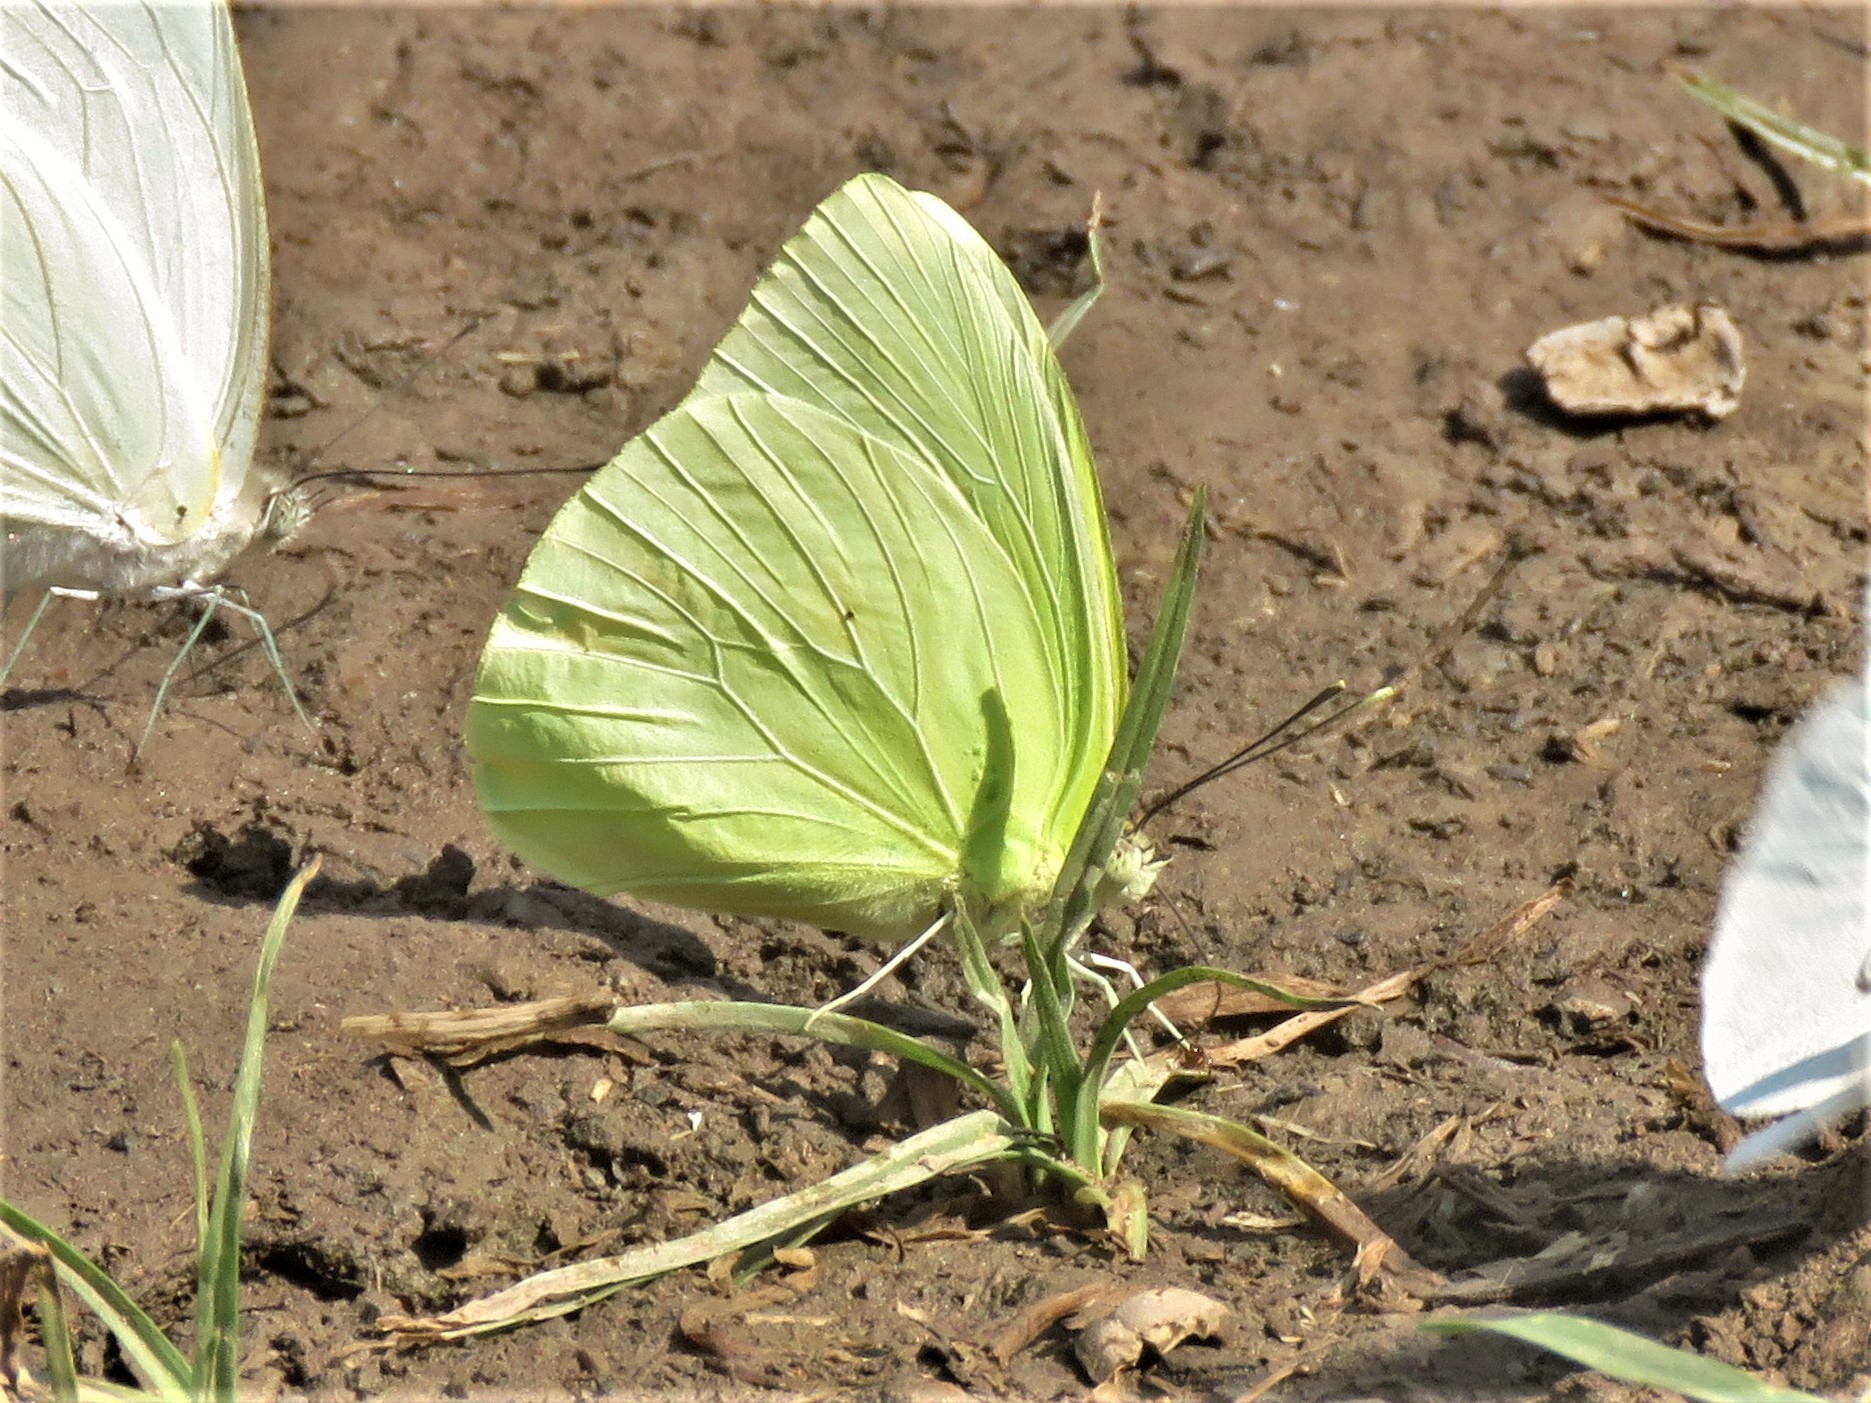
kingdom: Animalia
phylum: Arthropoda
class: Insecta
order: Lepidoptera
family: Pieridae
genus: Aphrissa
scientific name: Aphrissa statira
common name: Statira sulphur
